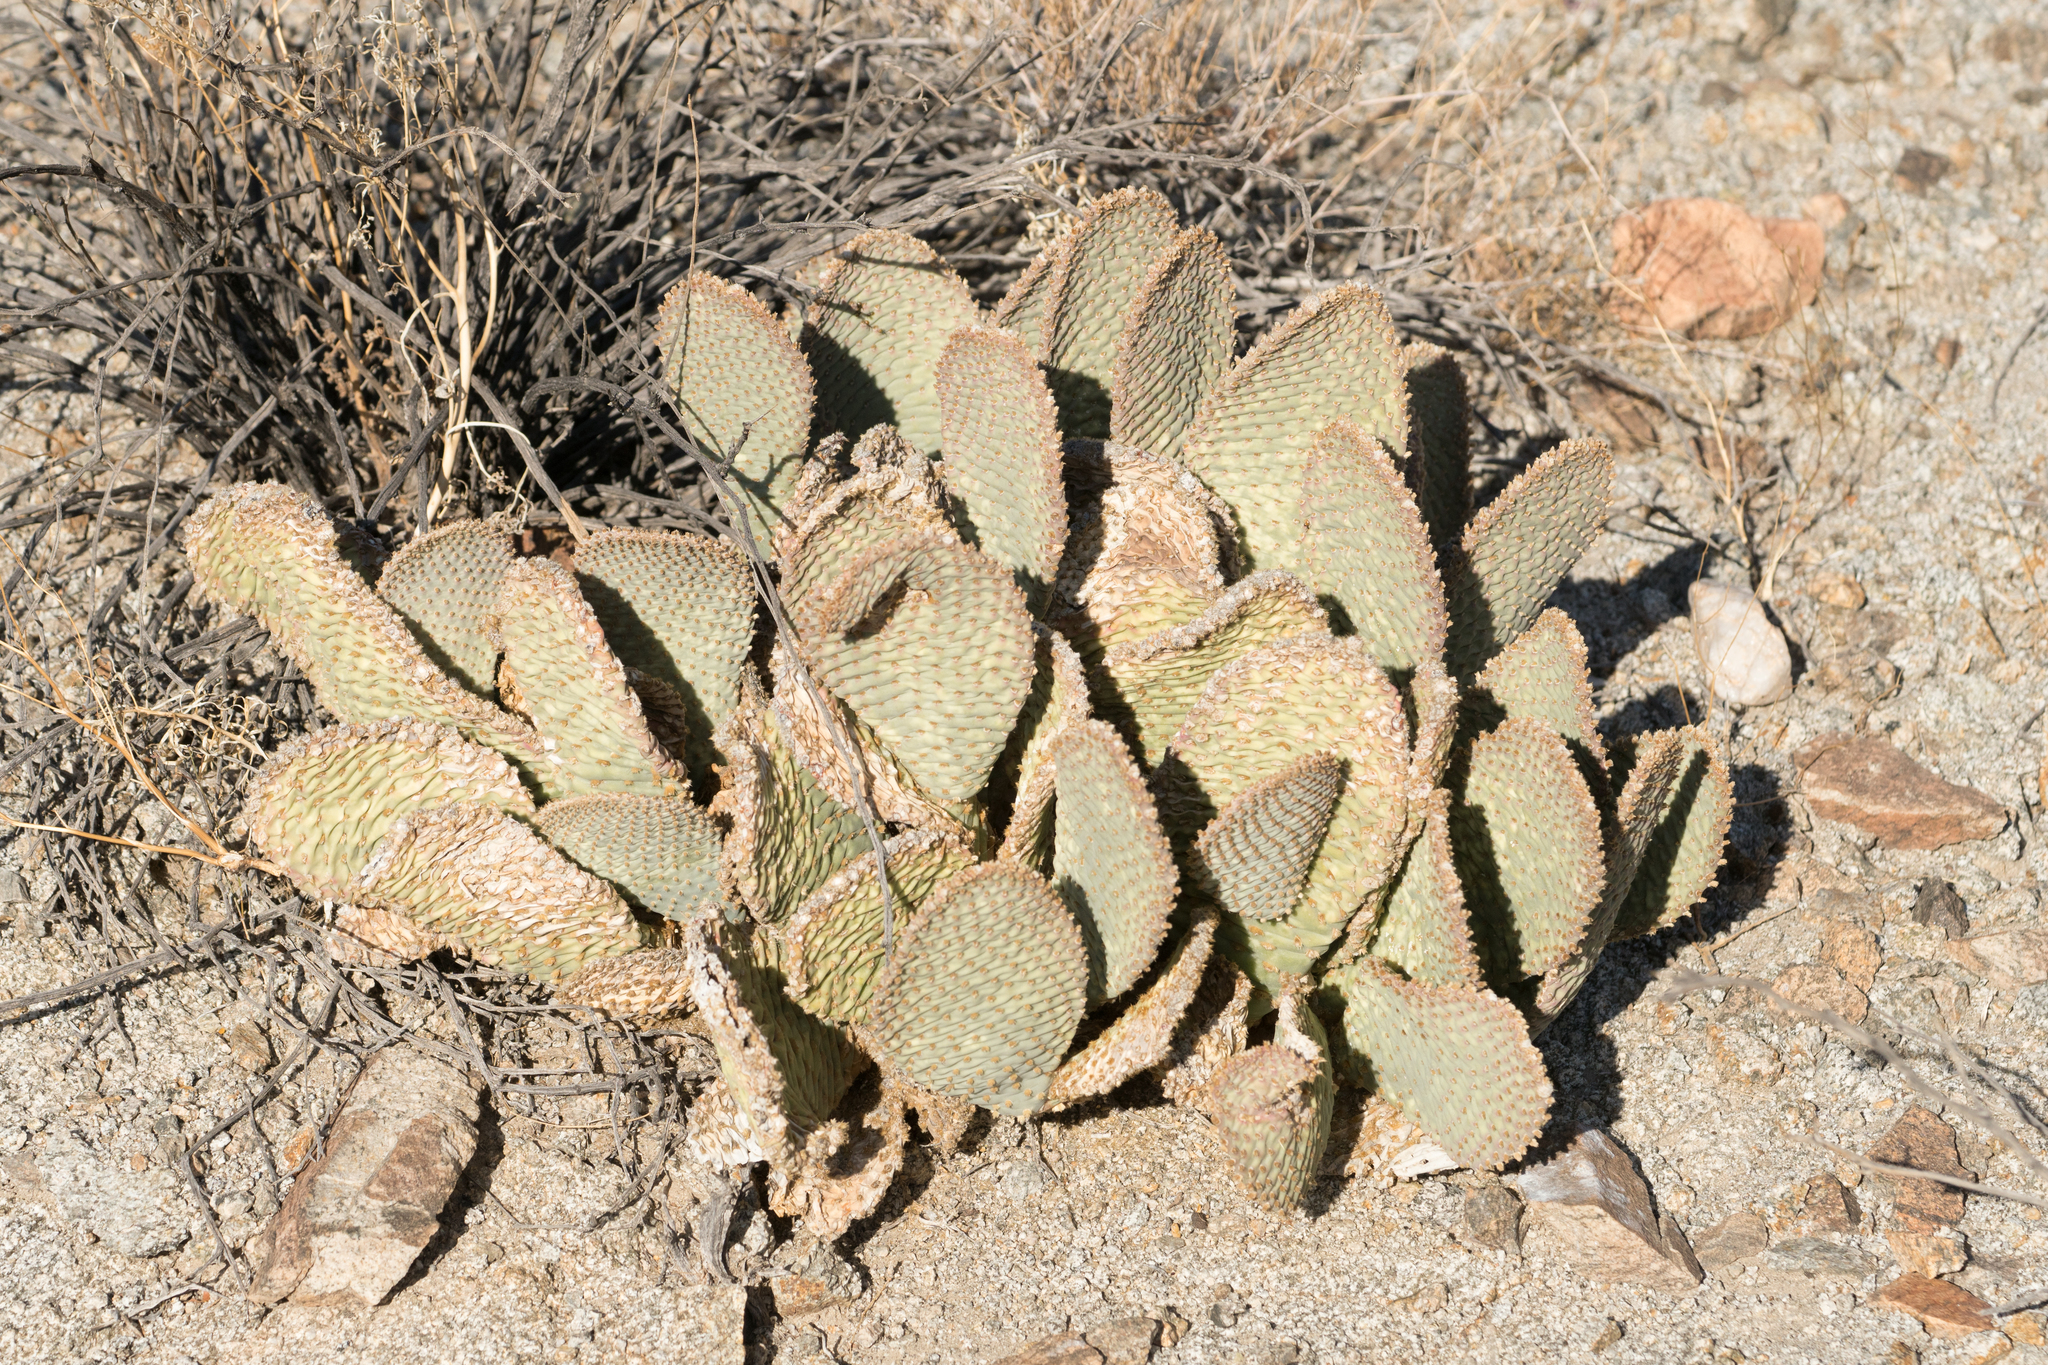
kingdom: Plantae
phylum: Tracheophyta
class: Magnoliopsida
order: Caryophyllales
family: Cactaceae
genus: Opuntia
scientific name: Opuntia basilaris
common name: Beavertail prickly-pear
